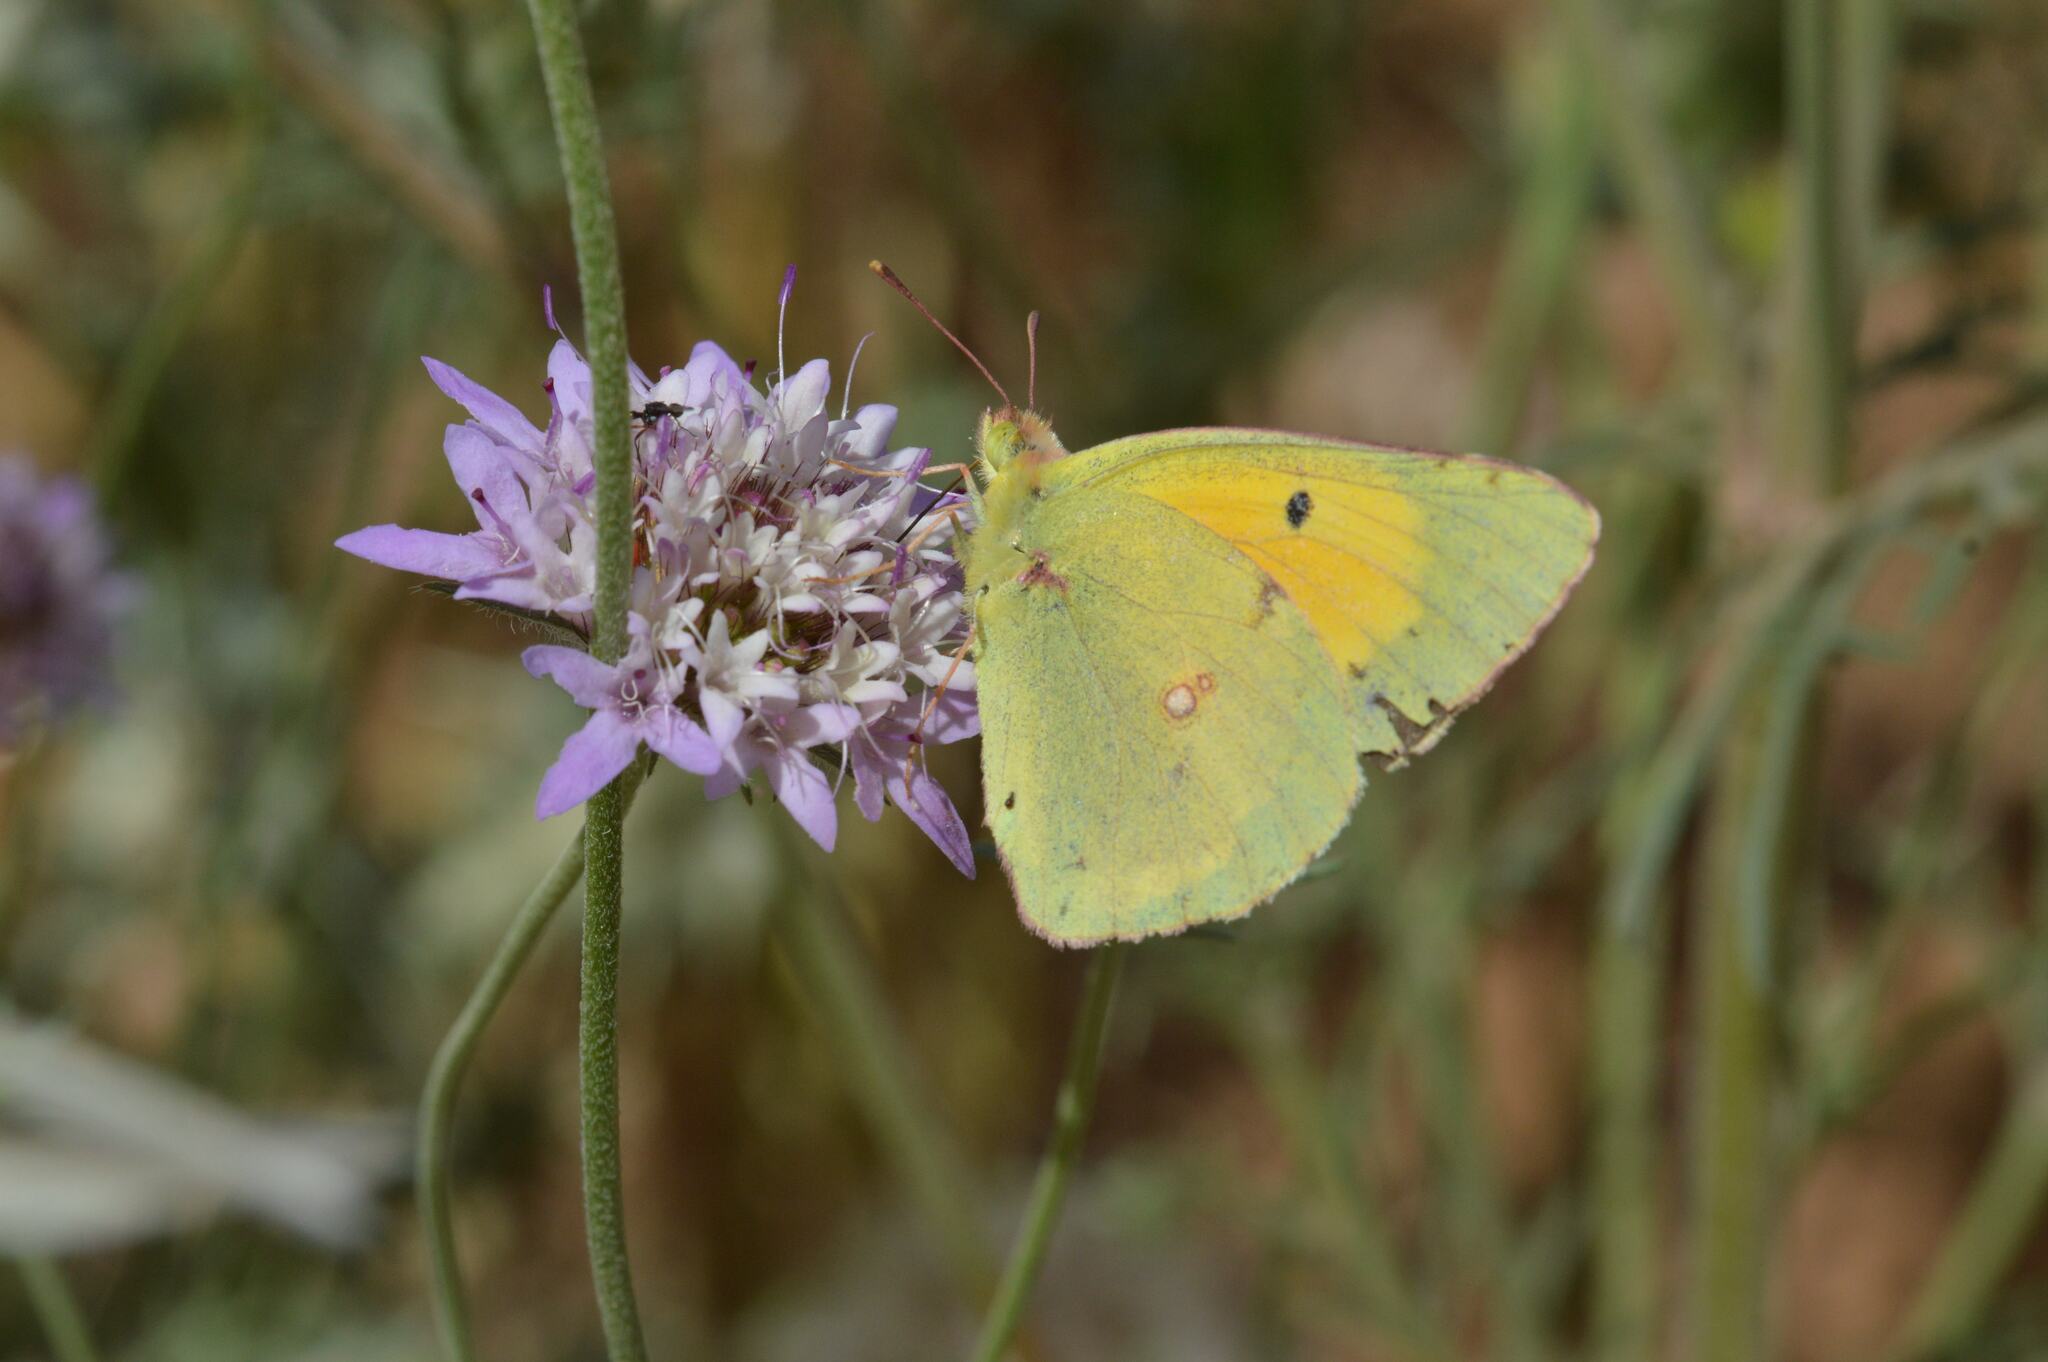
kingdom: Animalia
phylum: Arthropoda
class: Insecta
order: Lepidoptera
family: Pieridae
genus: Colias
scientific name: Colias croceus
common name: Clouded yellow
